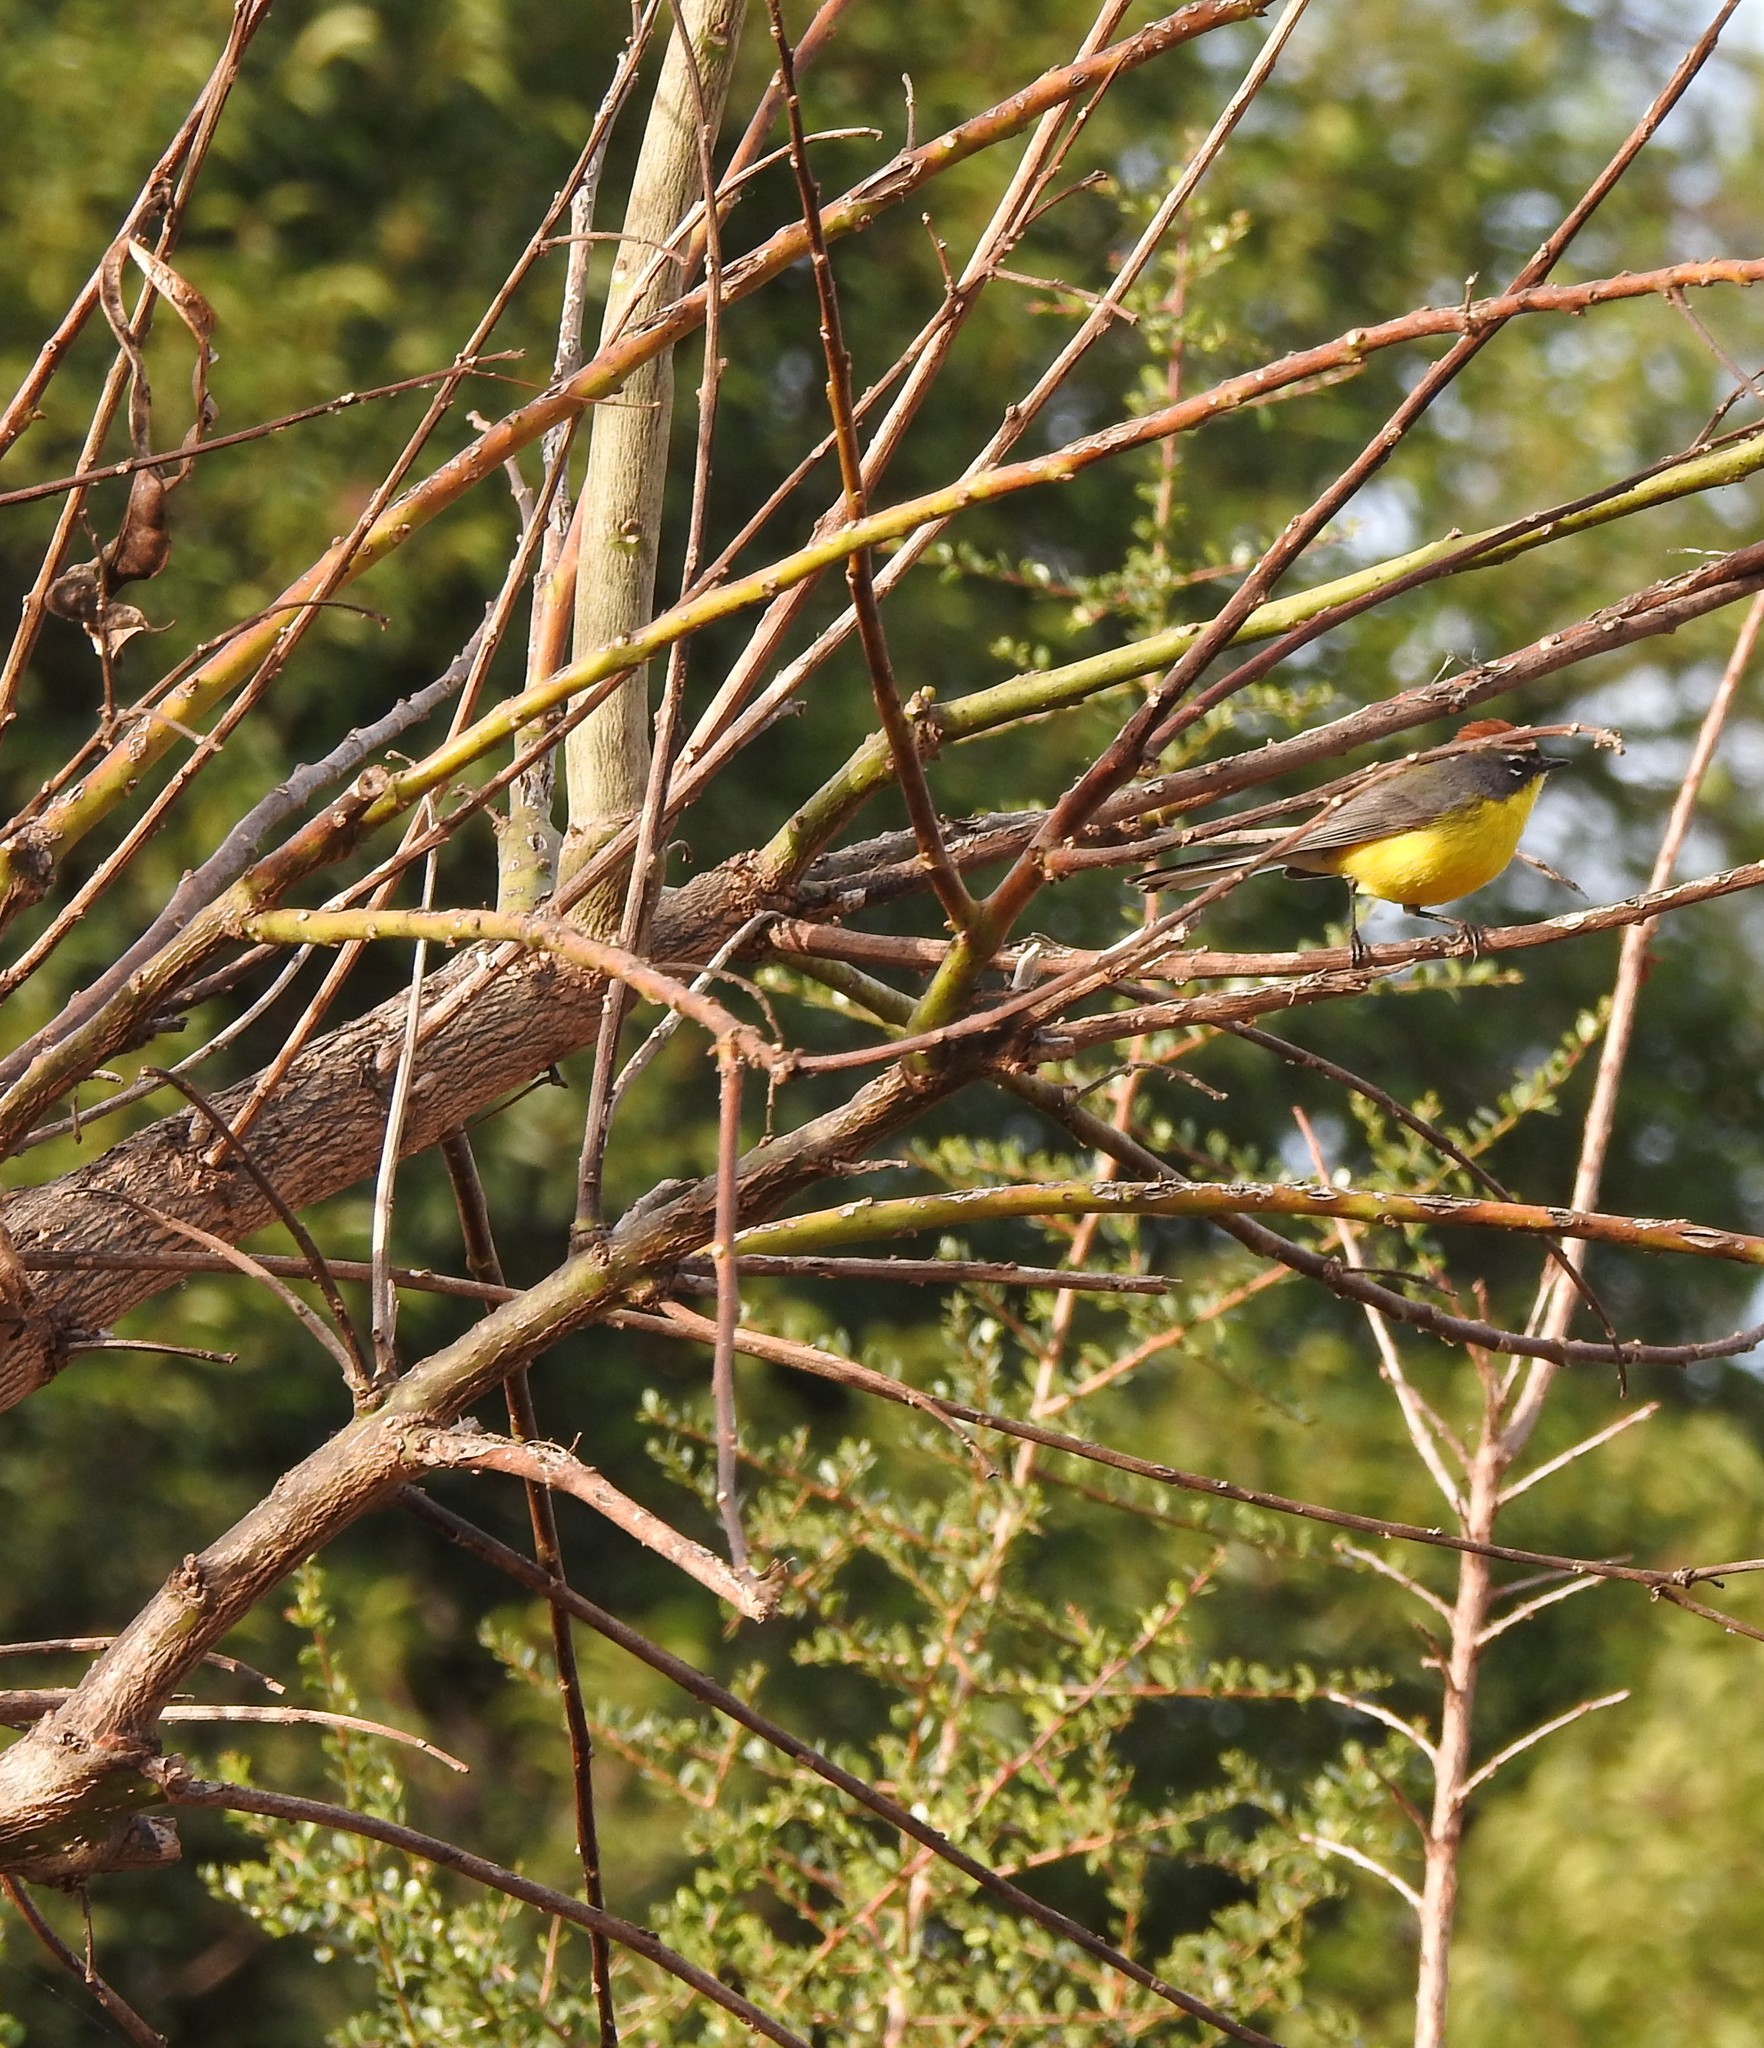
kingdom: Animalia
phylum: Chordata
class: Aves
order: Passeriformes
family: Parulidae
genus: Myioborus
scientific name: Myioborus brunniceps
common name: Brown-capped whitestart
